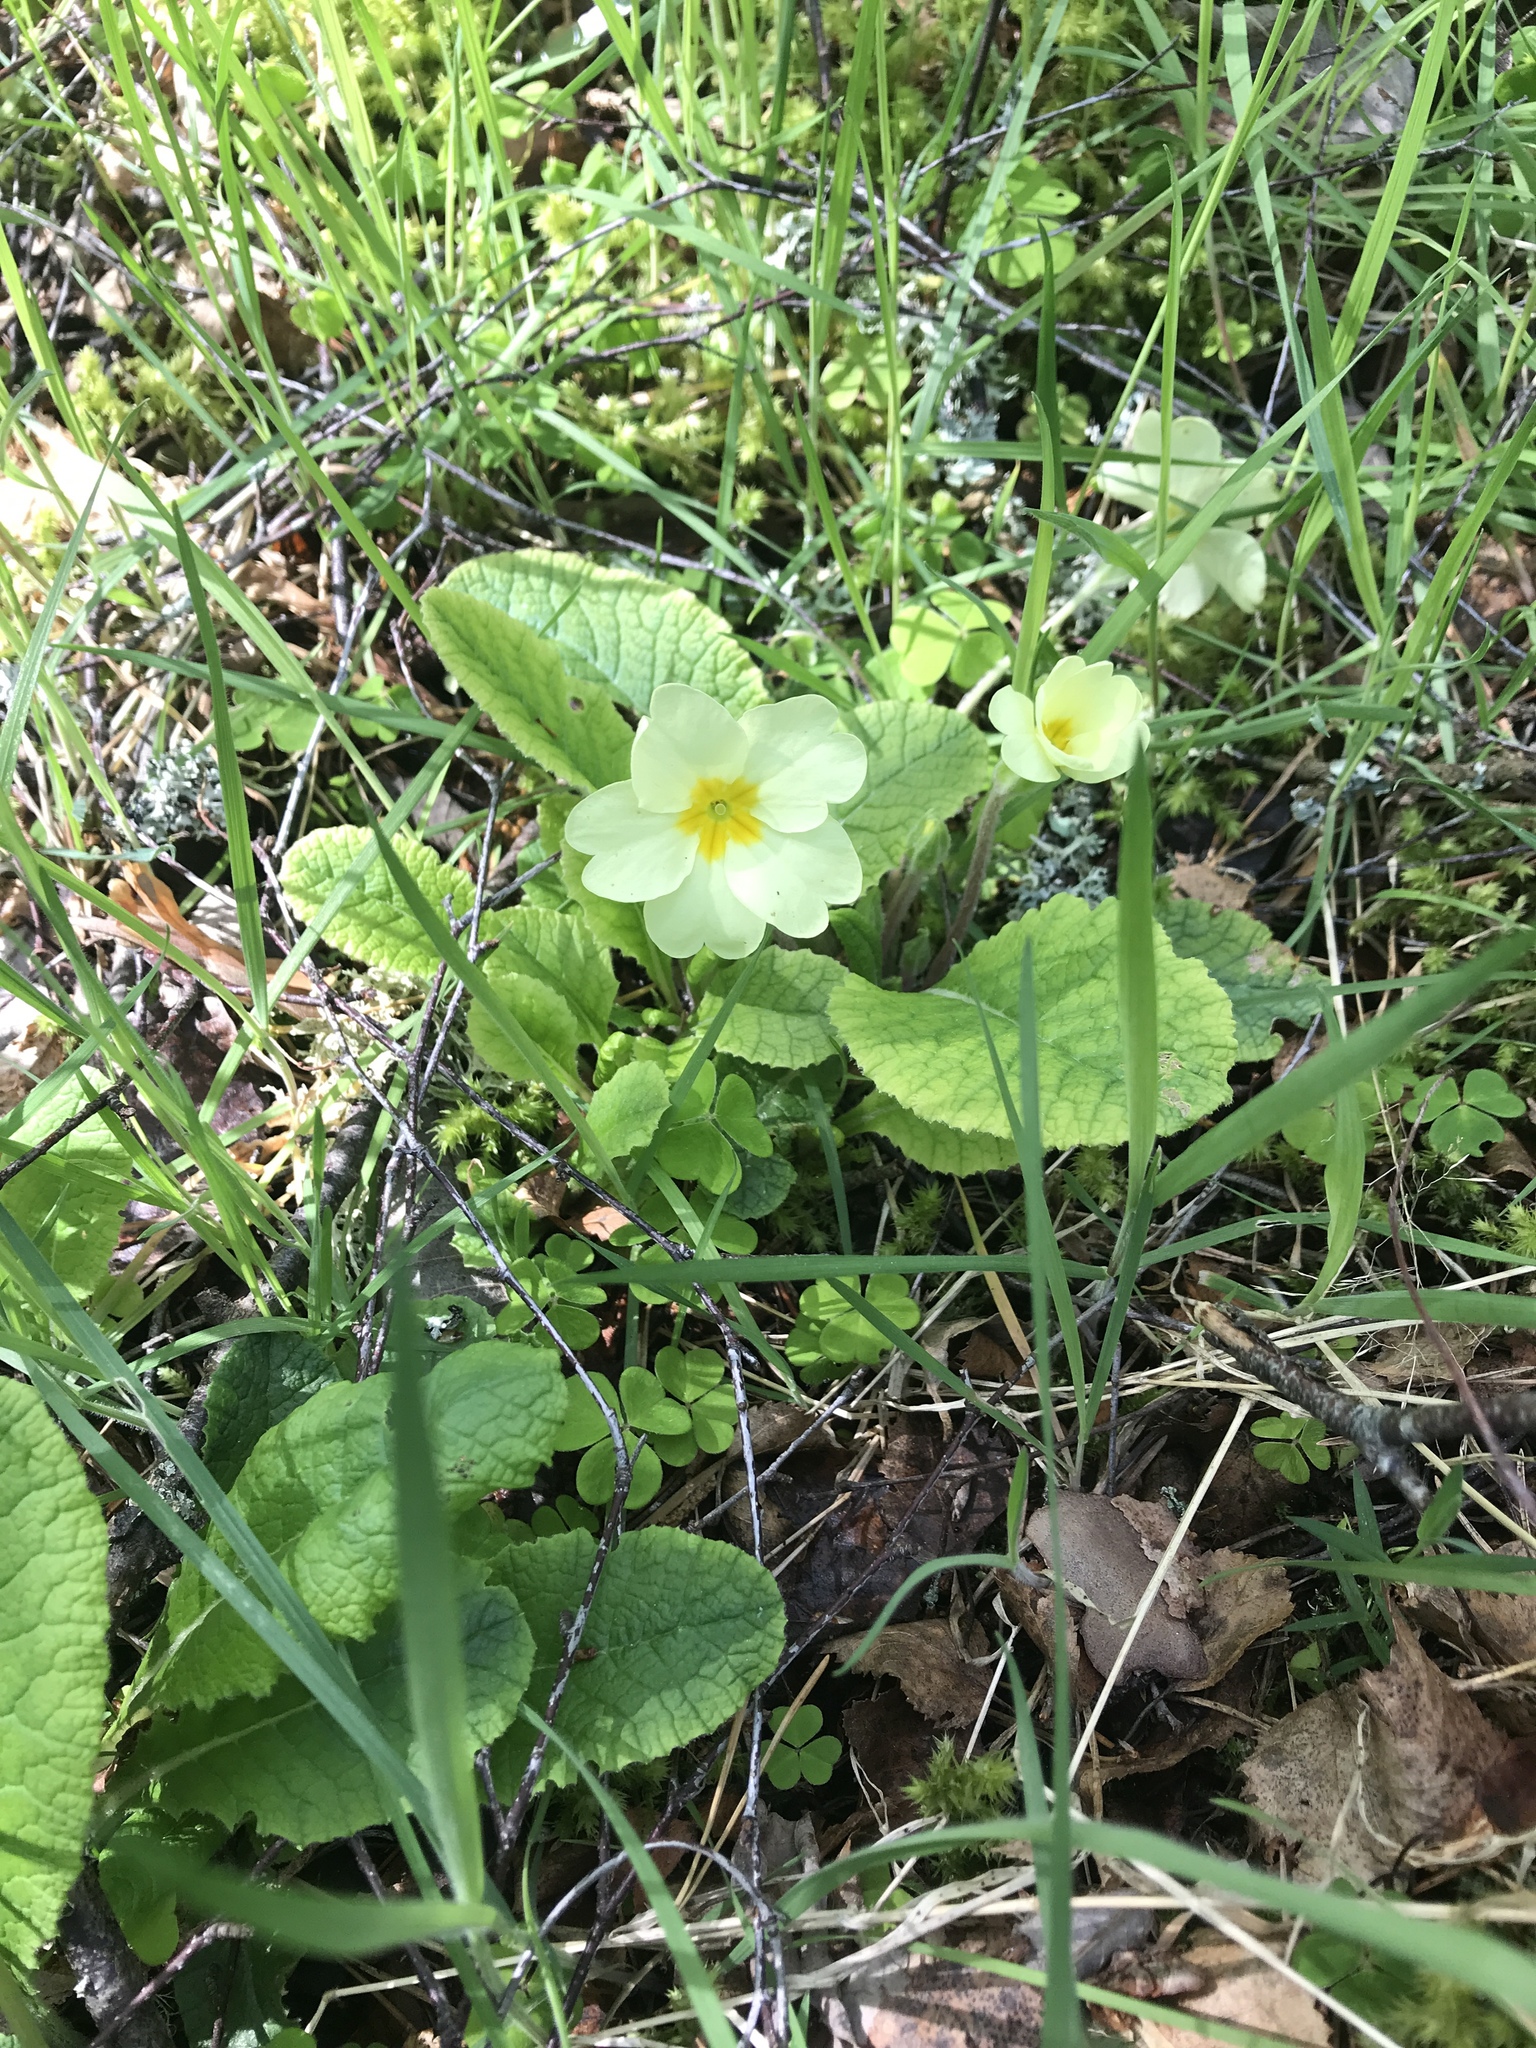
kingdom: Plantae
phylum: Tracheophyta
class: Magnoliopsida
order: Ericales
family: Primulaceae
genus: Primula
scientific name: Primula vulgaris
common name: Primrose
